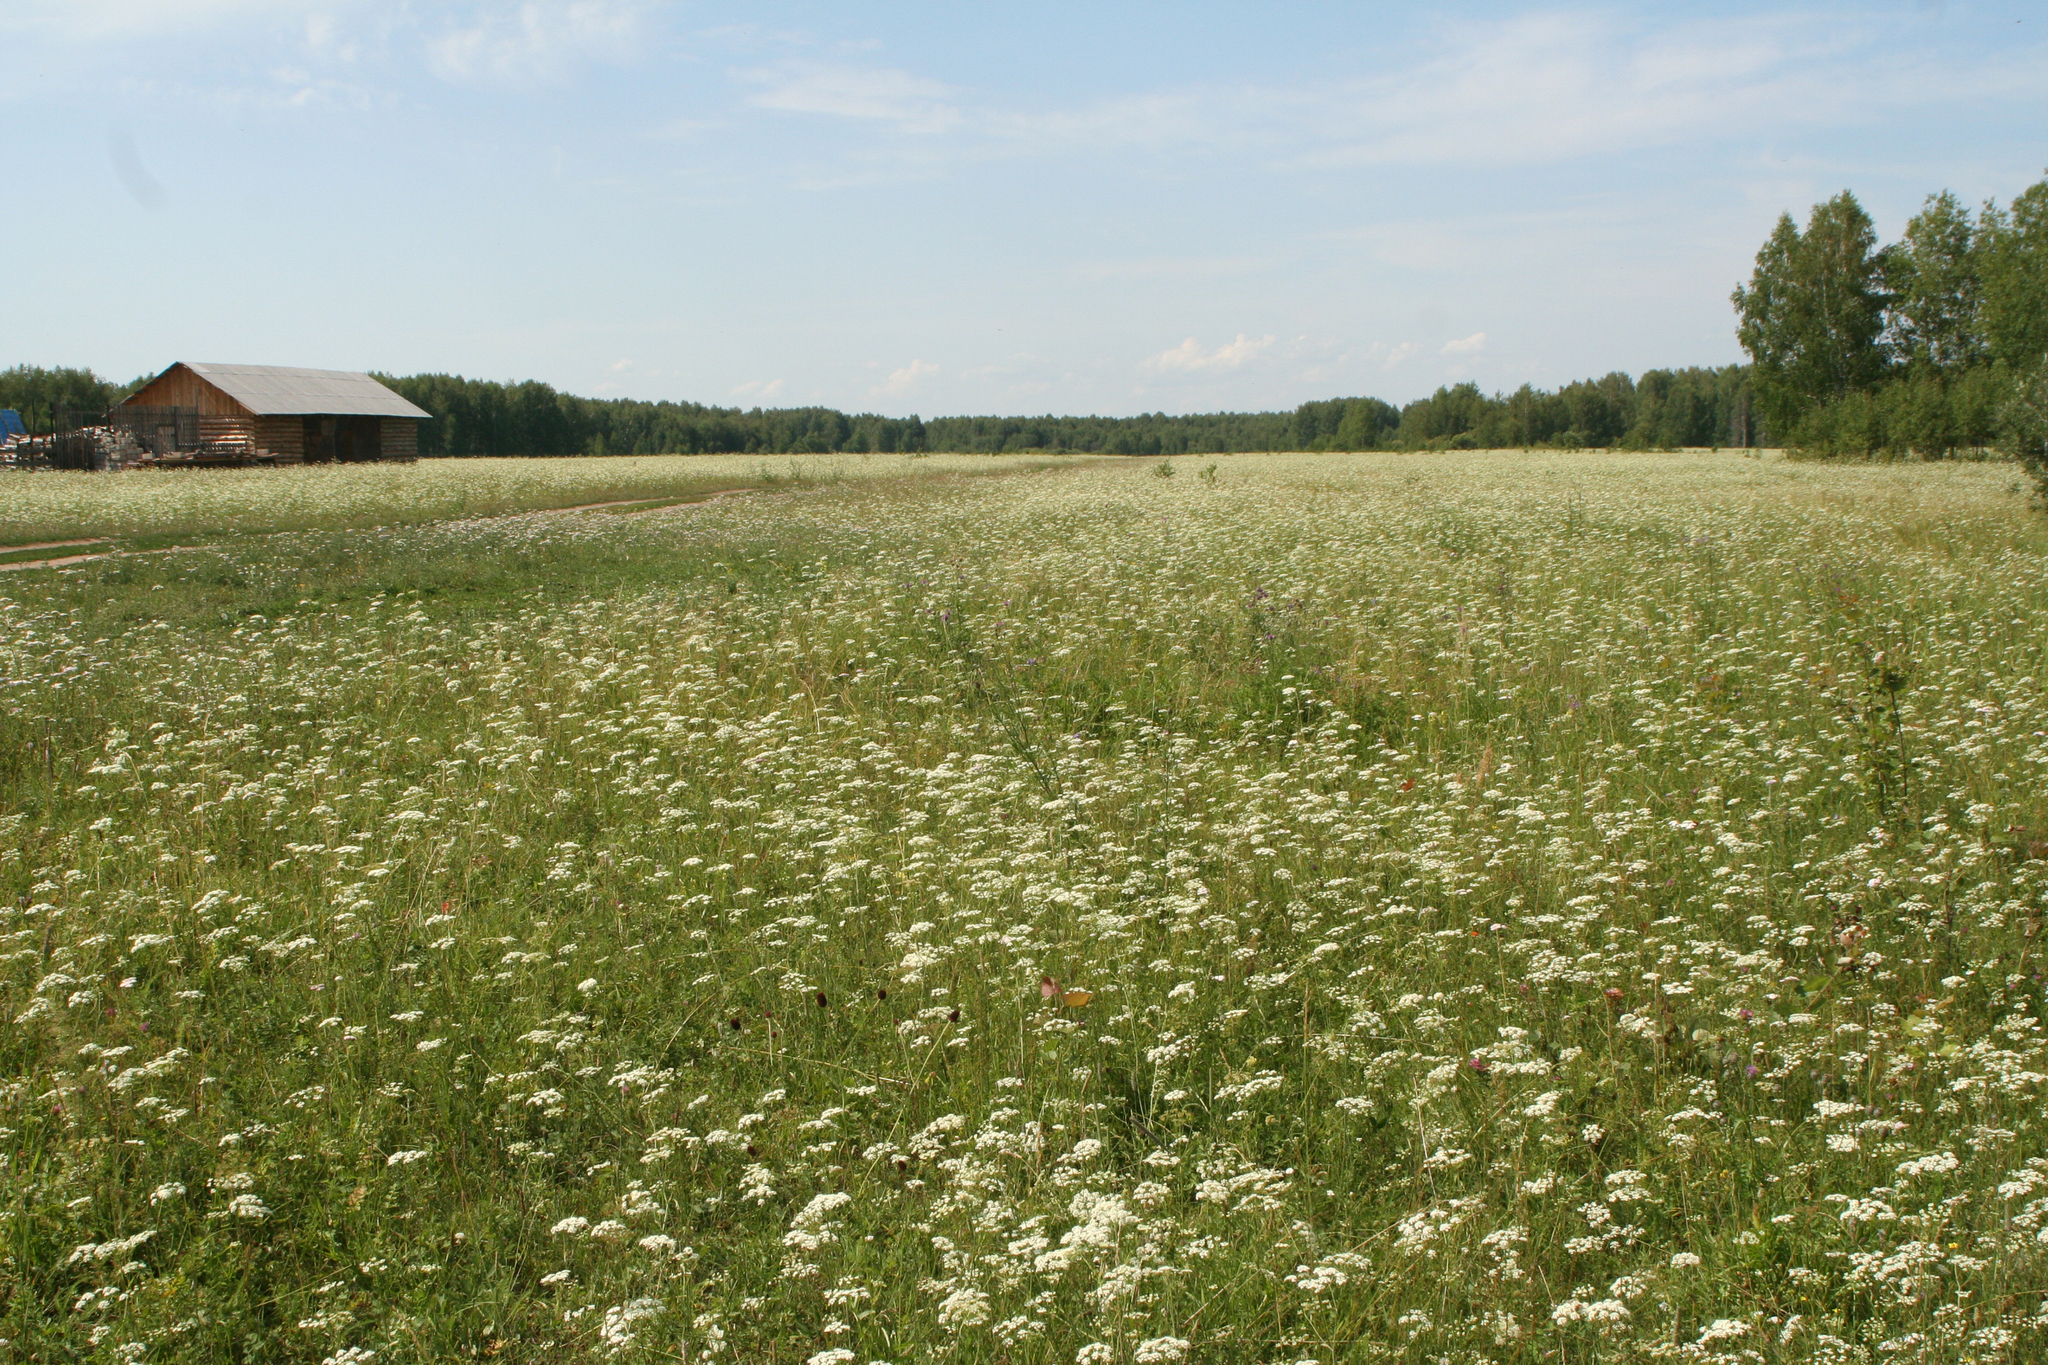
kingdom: Plantae
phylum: Tracheophyta
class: Magnoliopsida
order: Apiales
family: Apiaceae
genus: Pimpinella
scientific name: Pimpinella saxifraga
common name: Burnet-saxifrage
